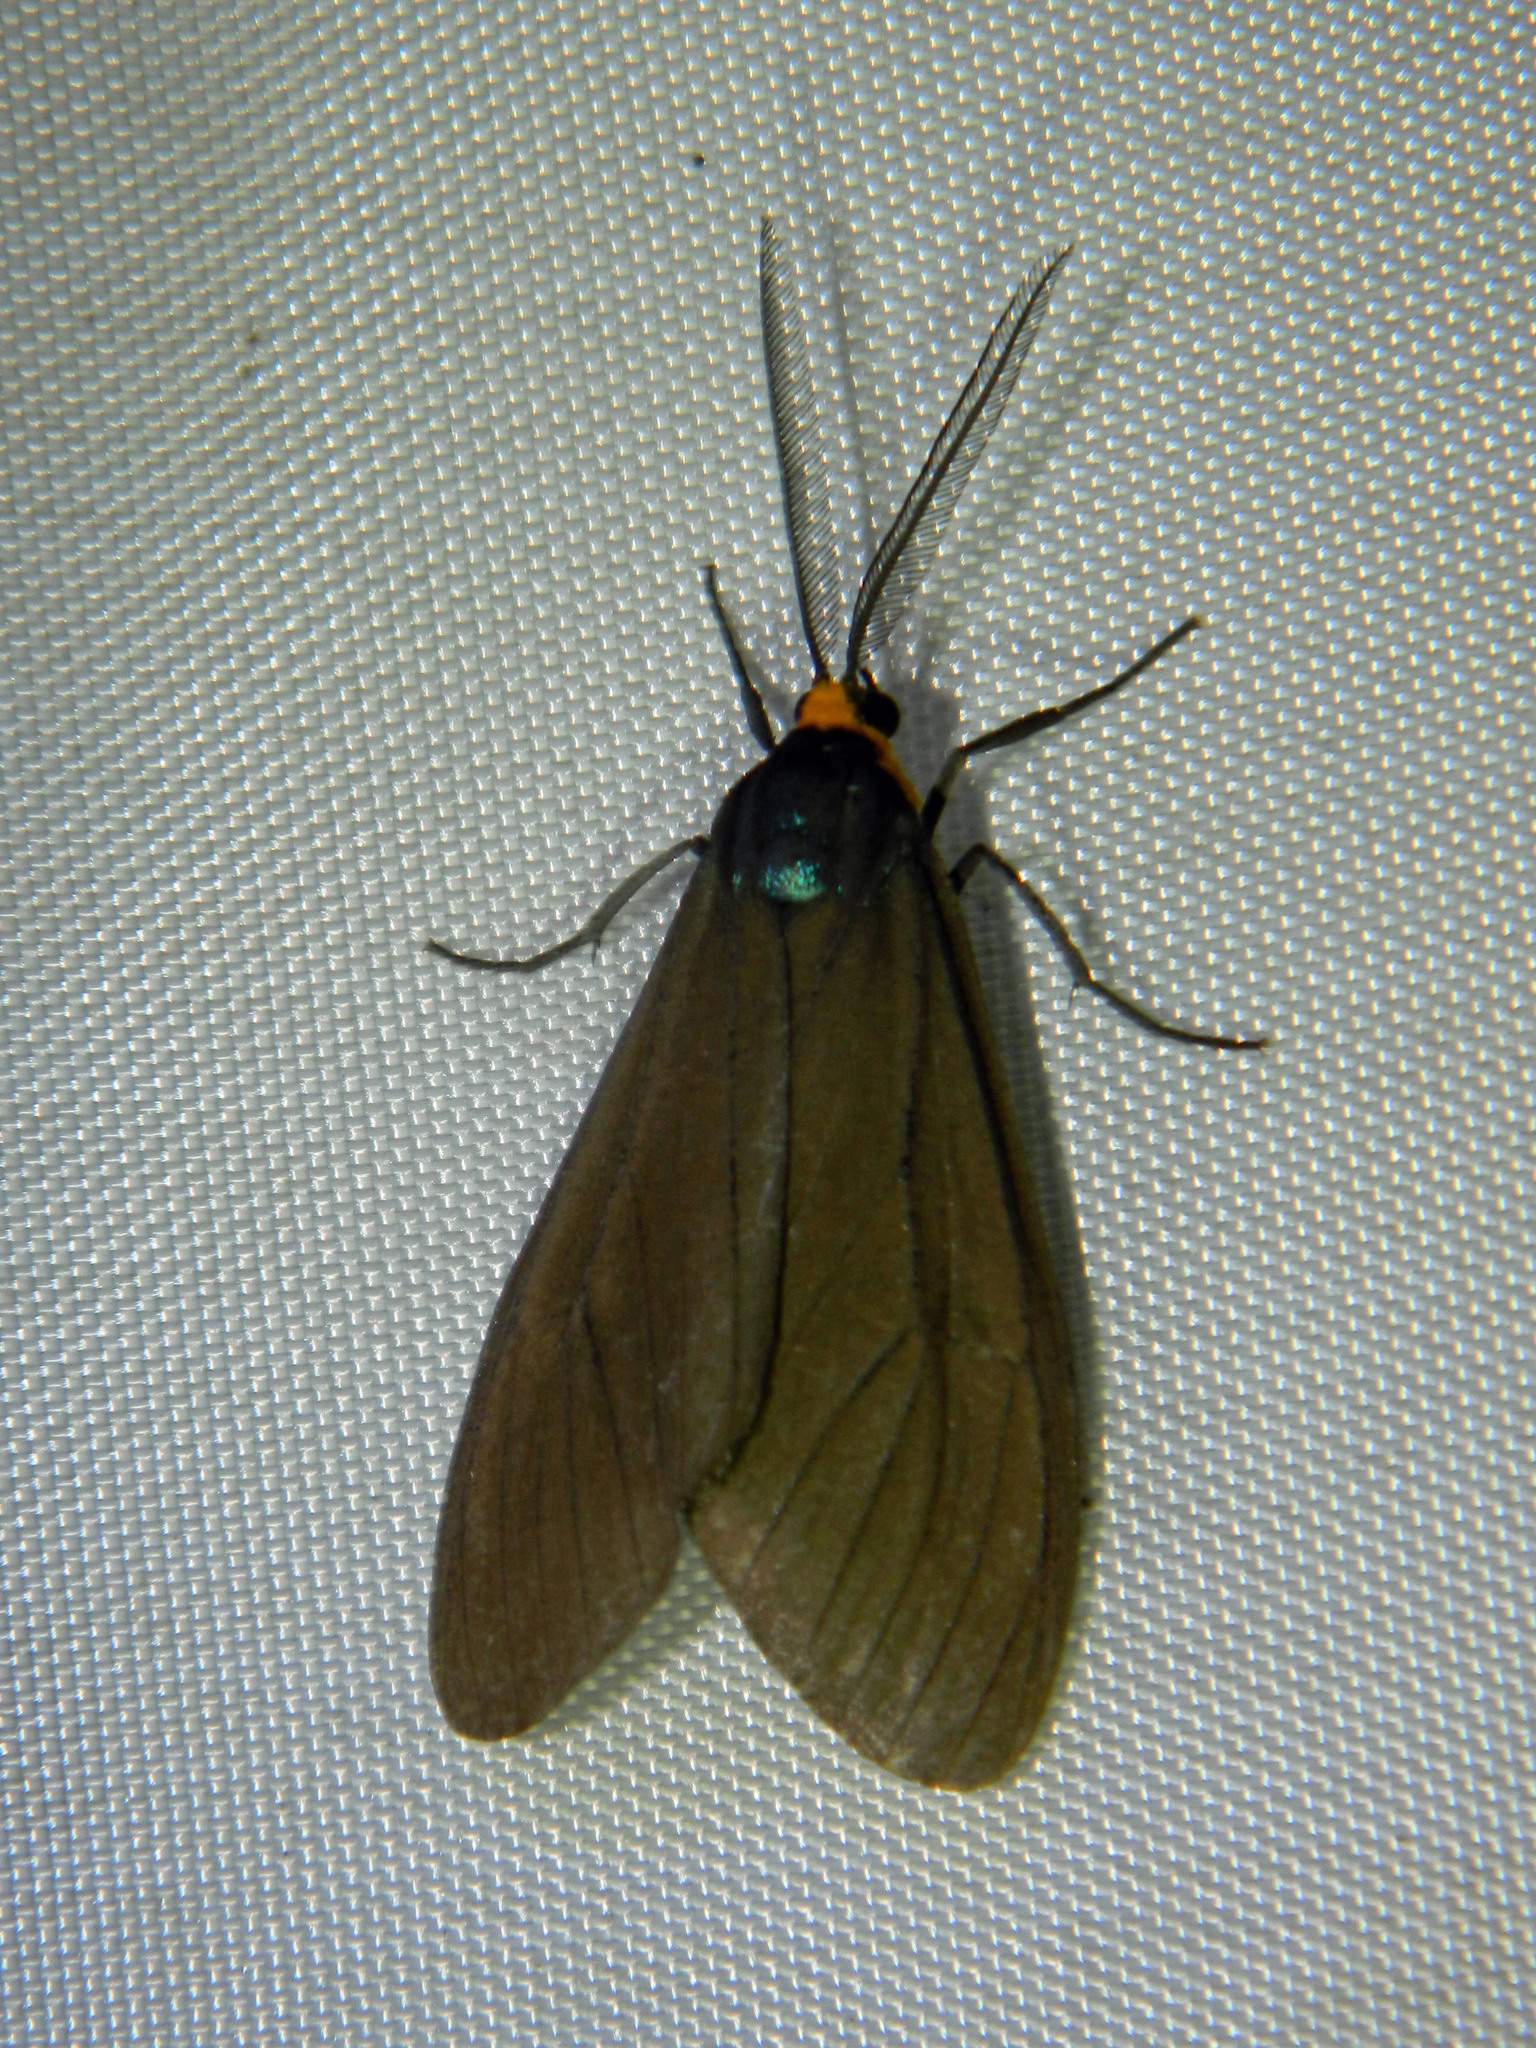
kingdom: Animalia
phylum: Arthropoda
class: Insecta
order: Lepidoptera
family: Erebidae
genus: Ctenucha
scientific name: Ctenucha virginica
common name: Virginia ctenucha moth
